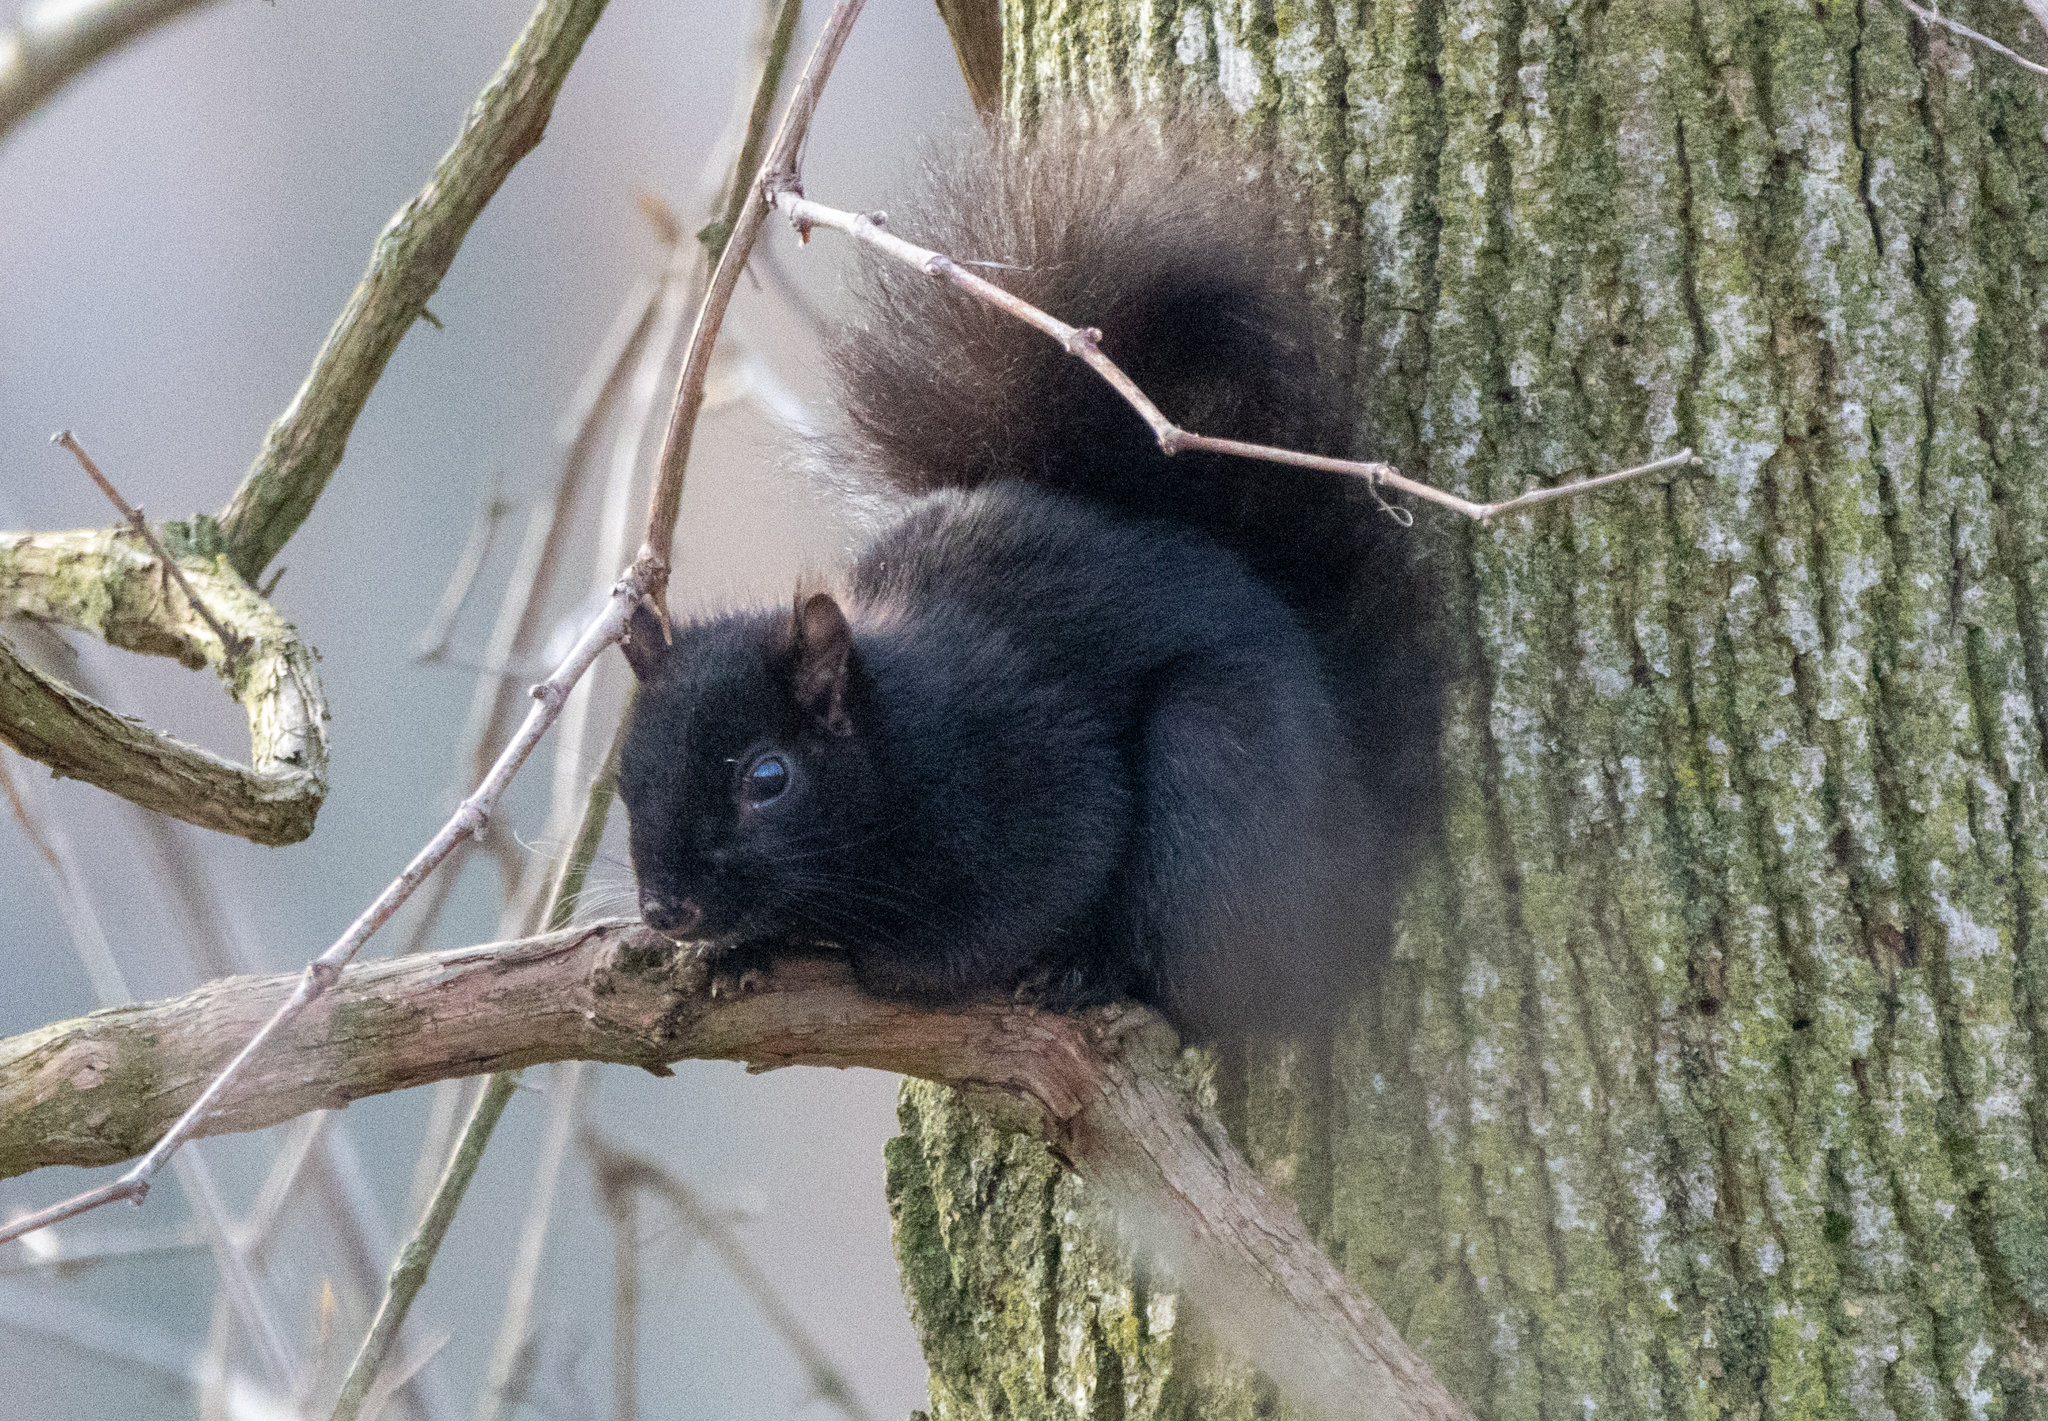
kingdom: Animalia
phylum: Chordata
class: Mammalia
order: Rodentia
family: Sciuridae
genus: Sciurus
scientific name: Sciurus carolinensis
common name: Eastern gray squirrel
